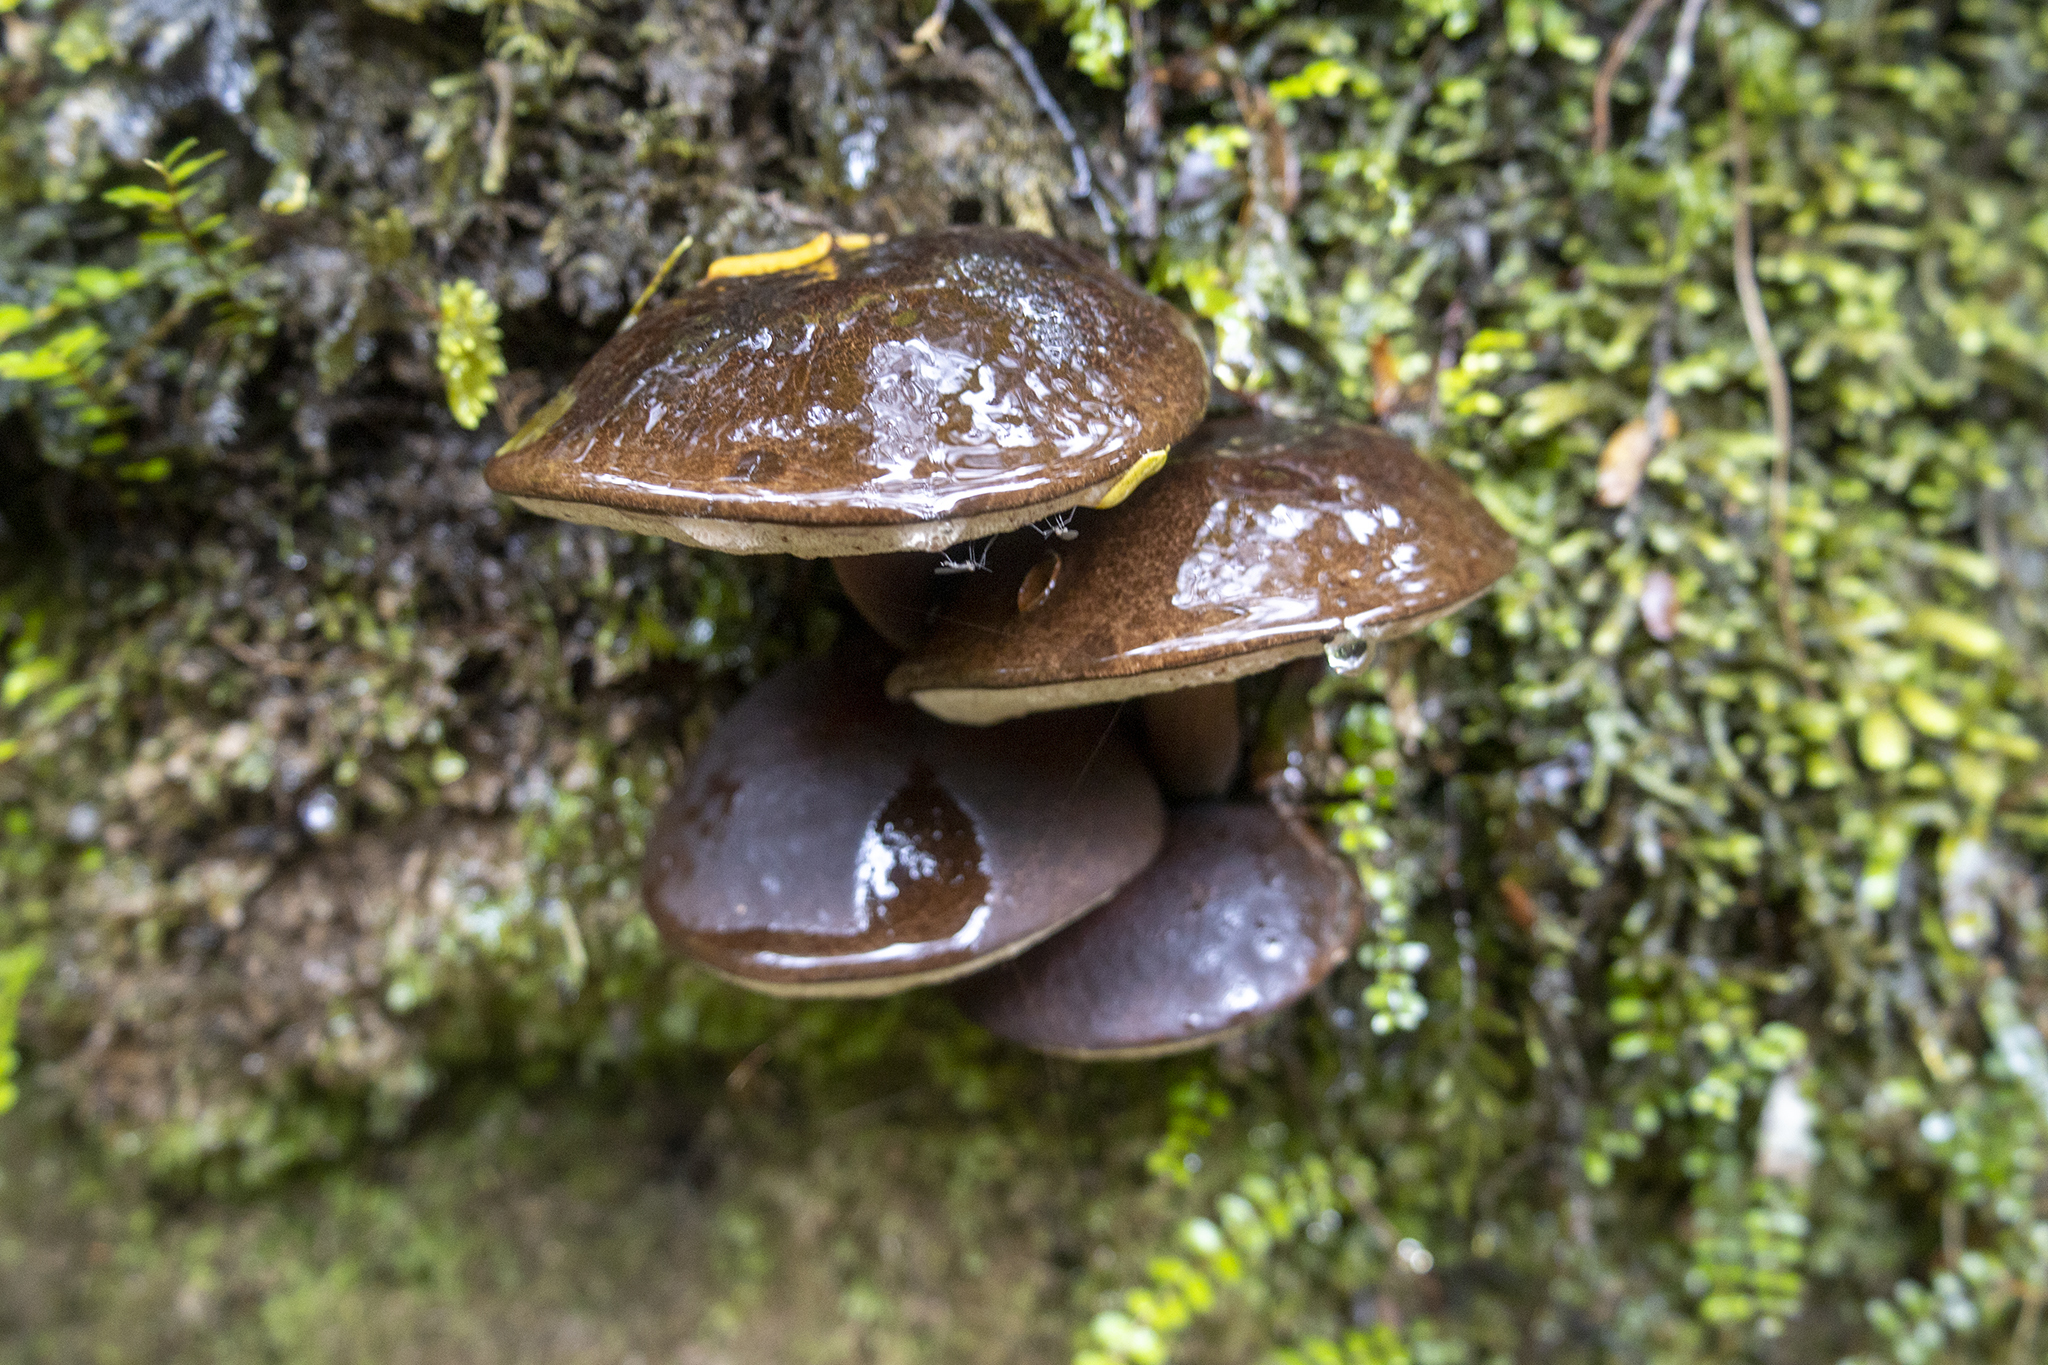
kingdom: Fungi
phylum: Basidiomycota
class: Agaricomycetes
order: Boletales
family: Boletaceae
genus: Porphyrellus
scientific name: Porphyrellus formosus
